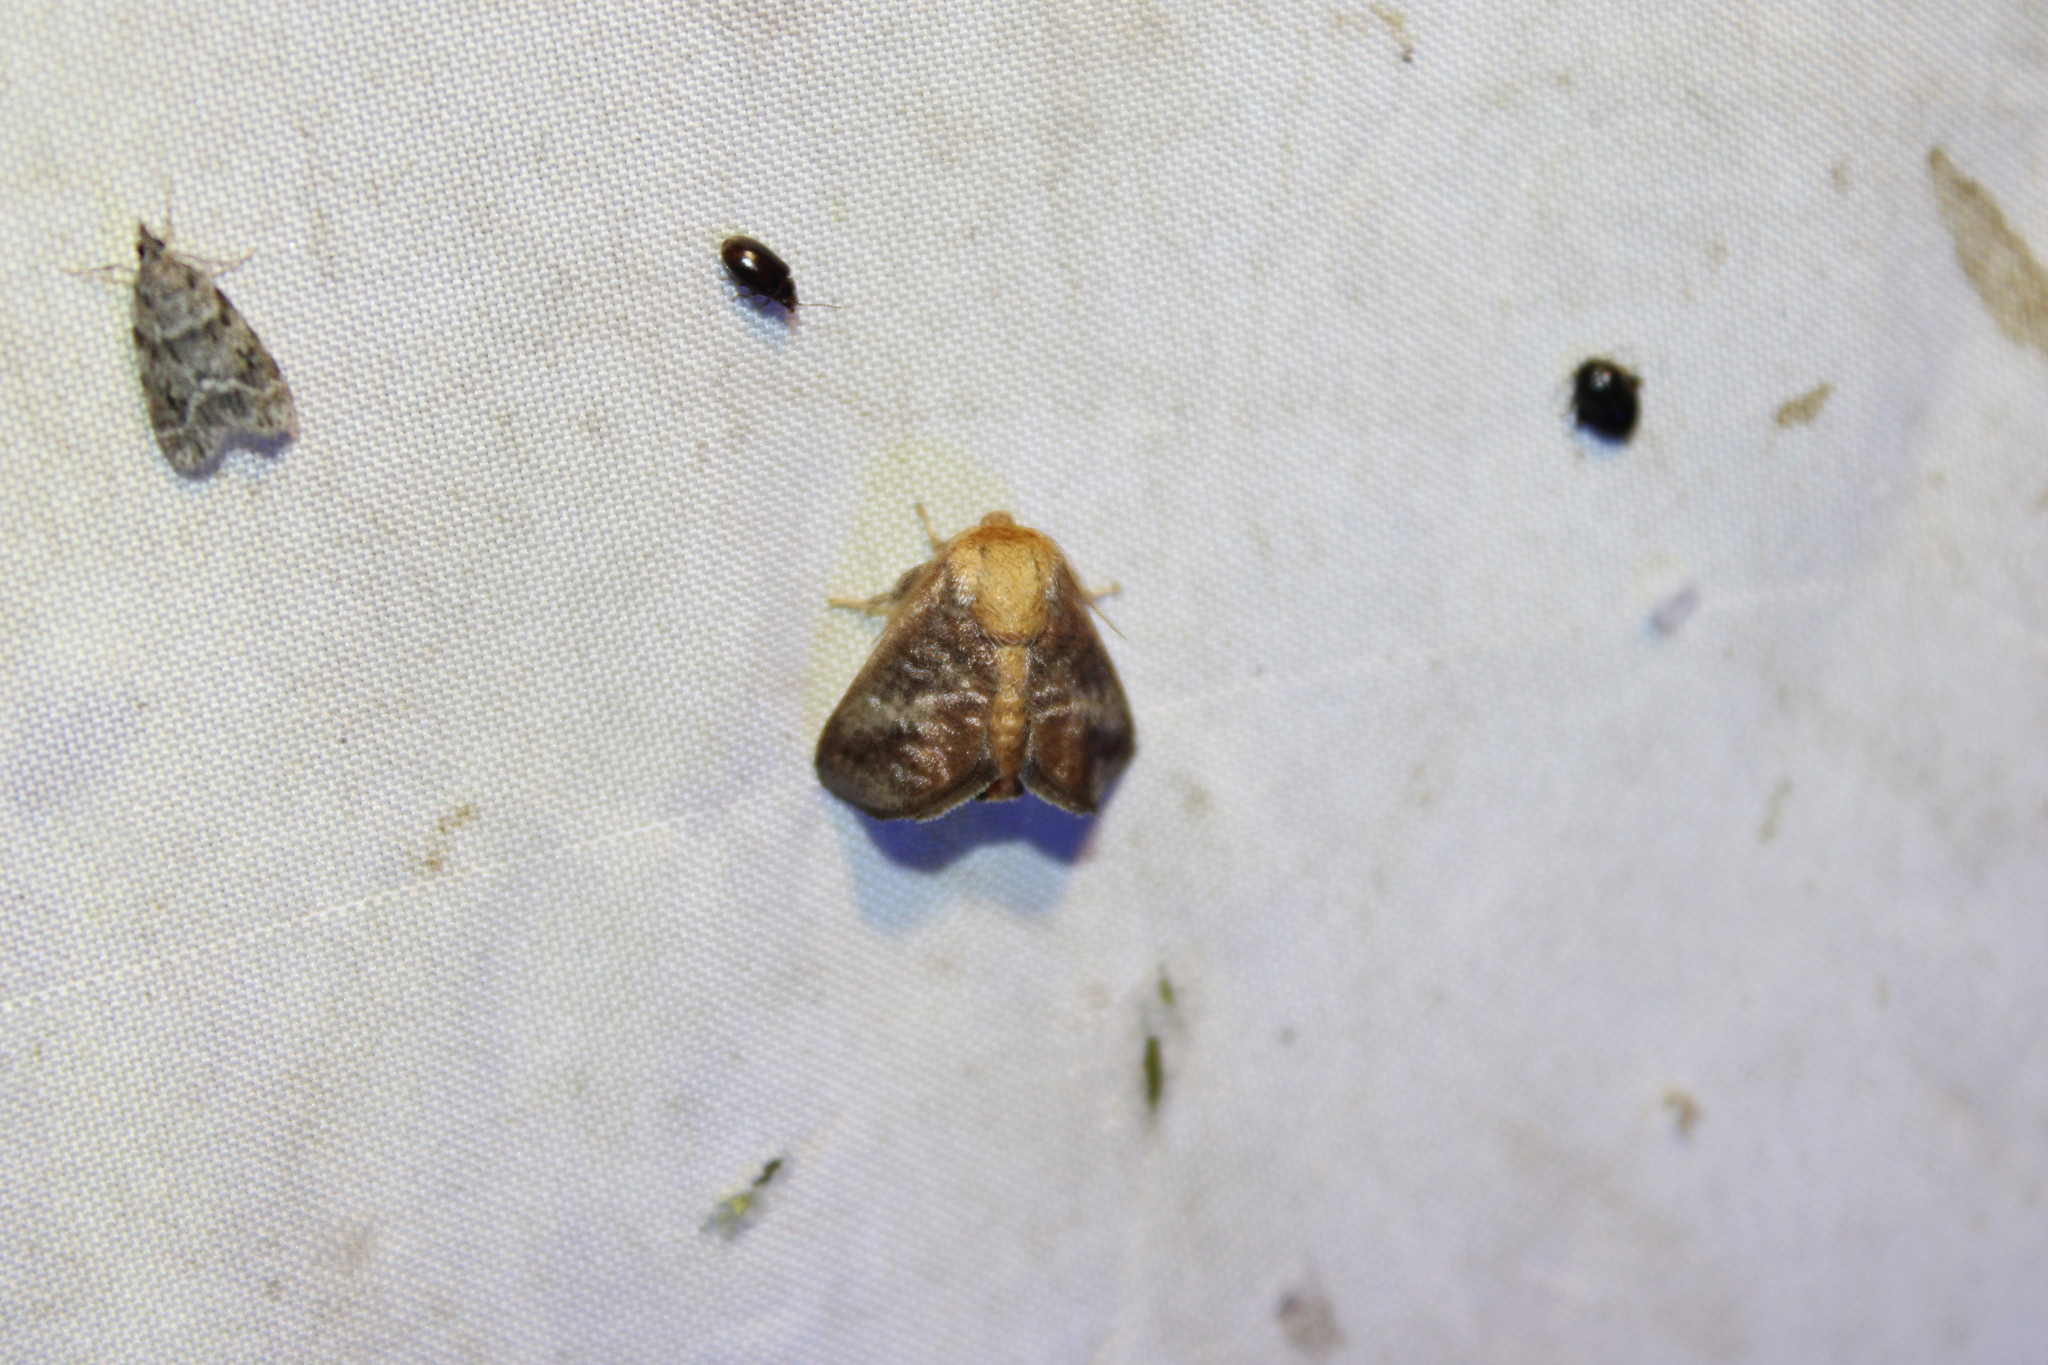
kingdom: Animalia
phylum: Arthropoda
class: Insecta
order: Lepidoptera
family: Limacodidae
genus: Isa
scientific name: Isa textula
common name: Crowned slug moth
